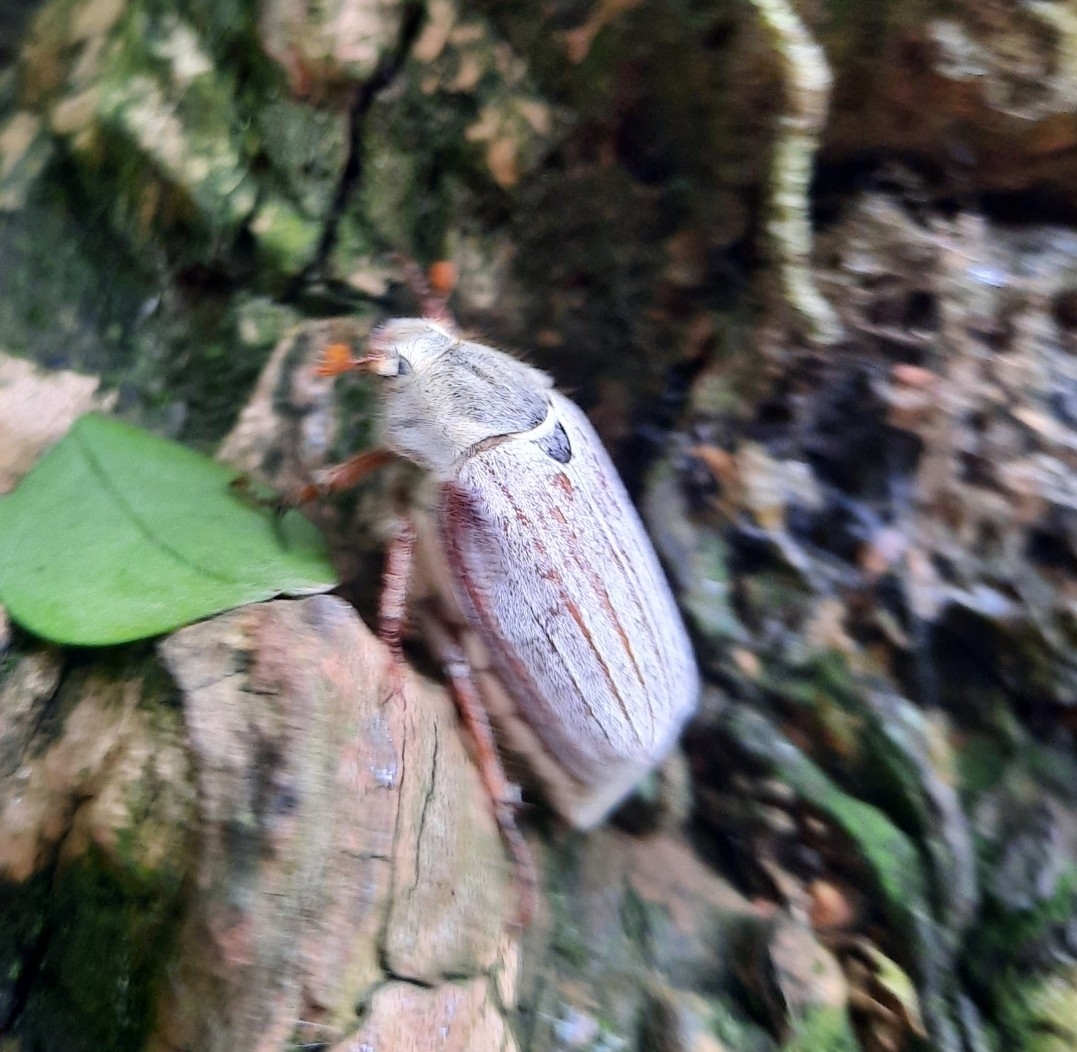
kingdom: Animalia
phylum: Arthropoda
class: Insecta
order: Coleoptera
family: Scarabaeidae
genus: Melolontha
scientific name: Melolontha melolontha
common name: Cockchafer maybeetle
